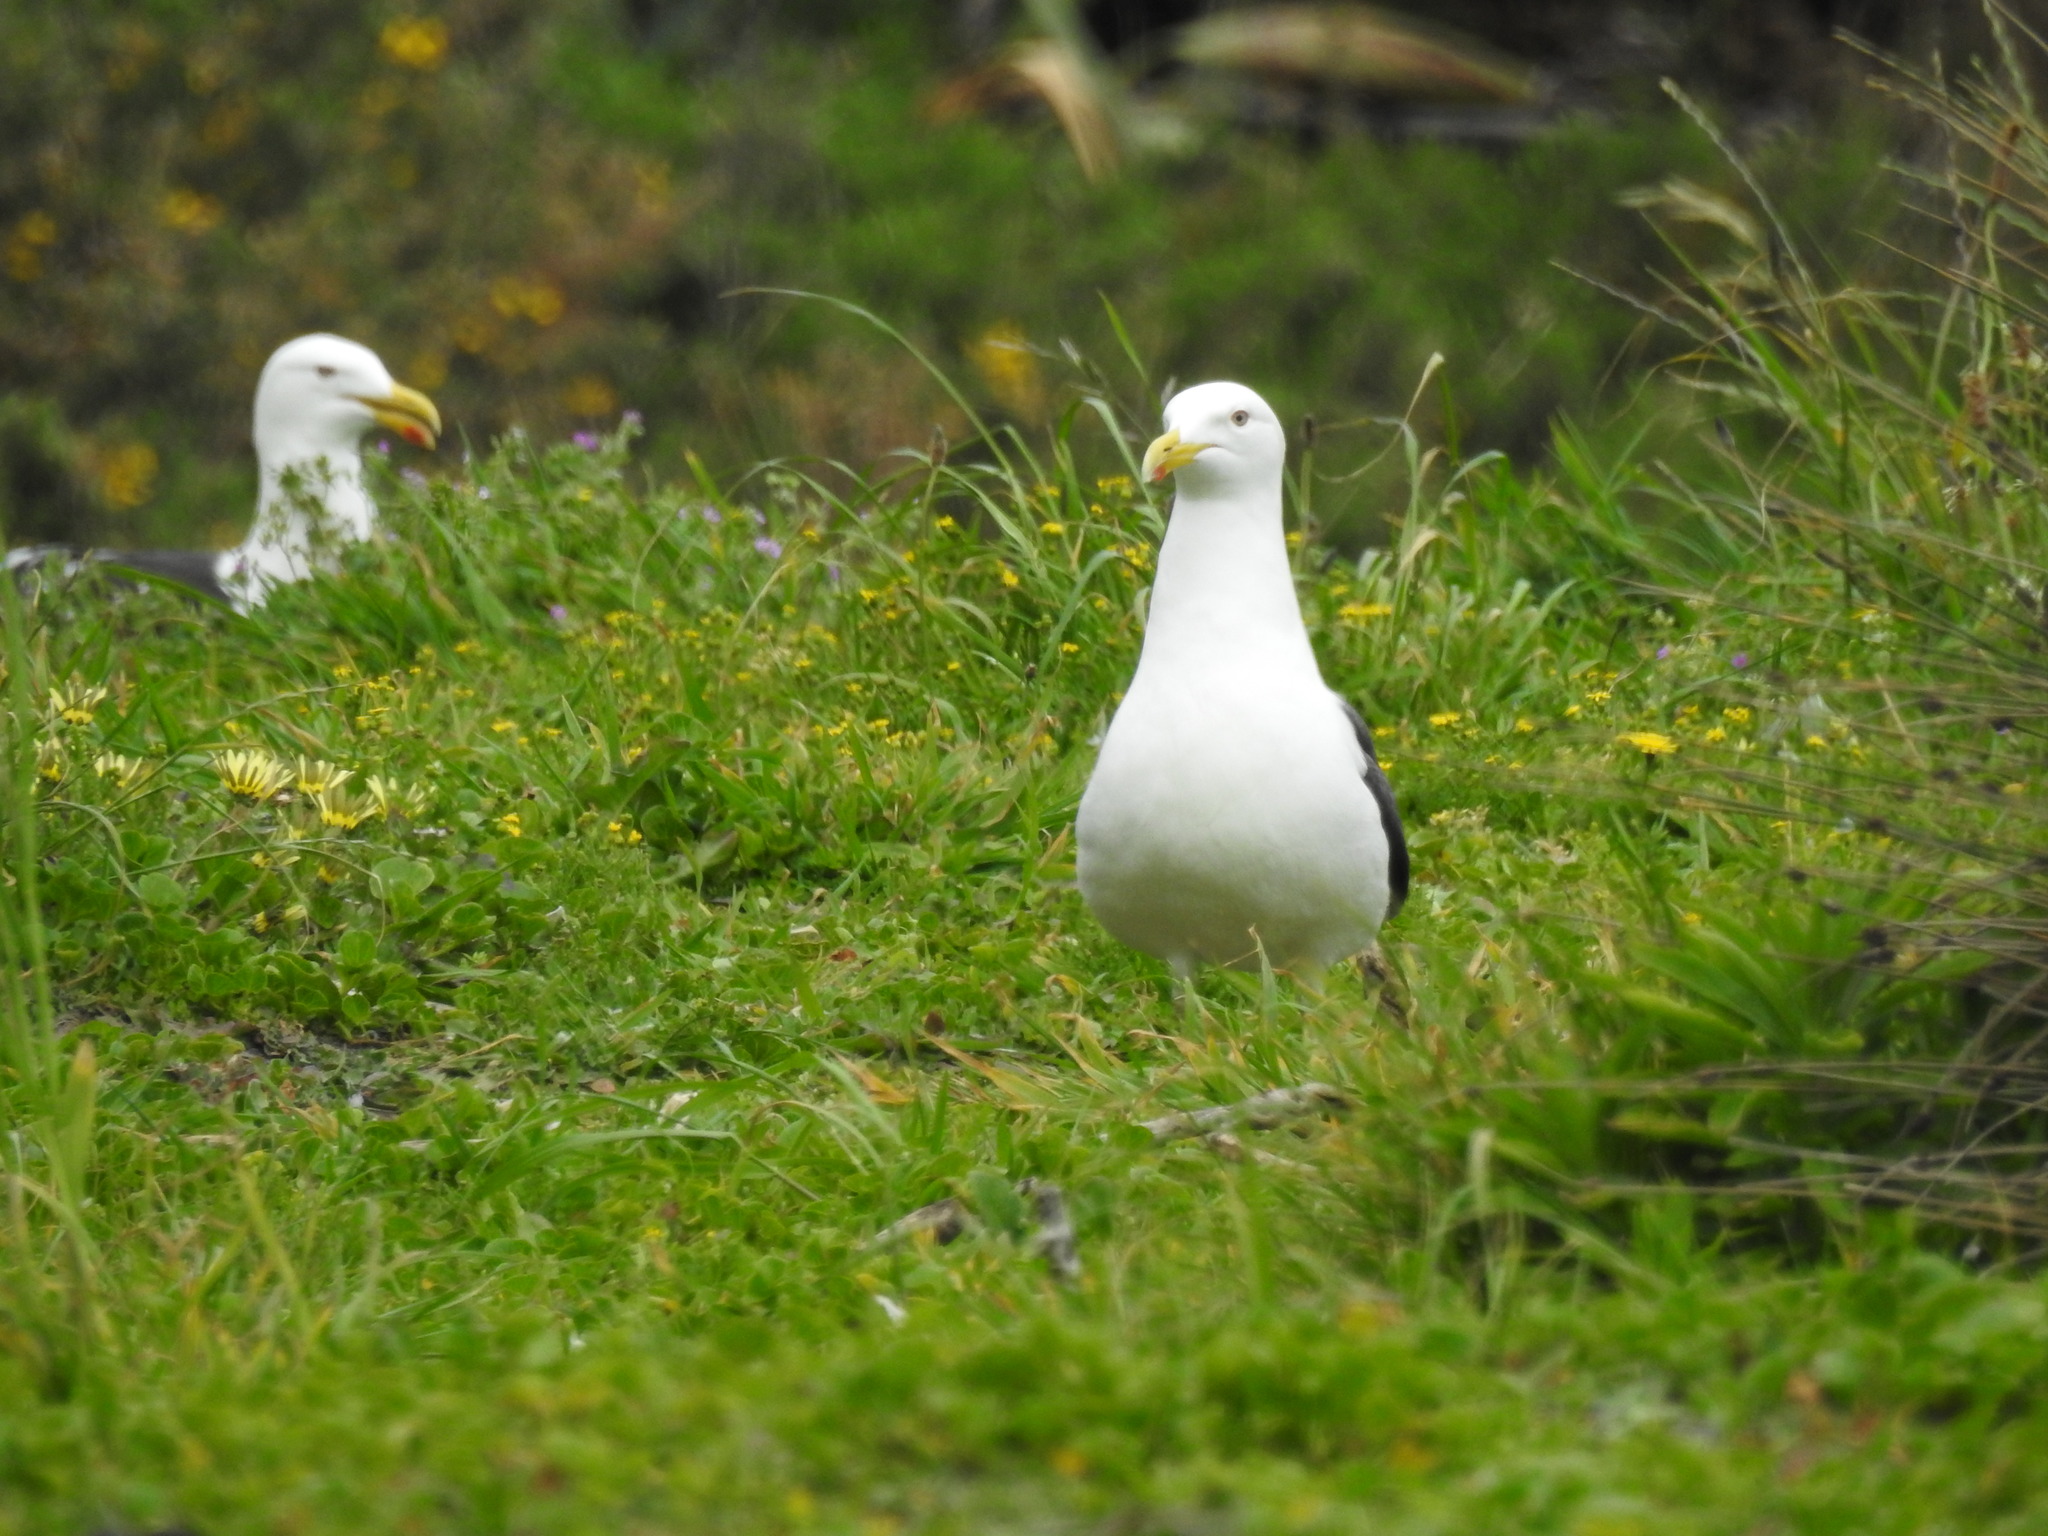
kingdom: Animalia
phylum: Chordata
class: Aves
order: Charadriiformes
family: Laridae
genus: Larus
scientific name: Larus dominicanus
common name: Kelp gull
